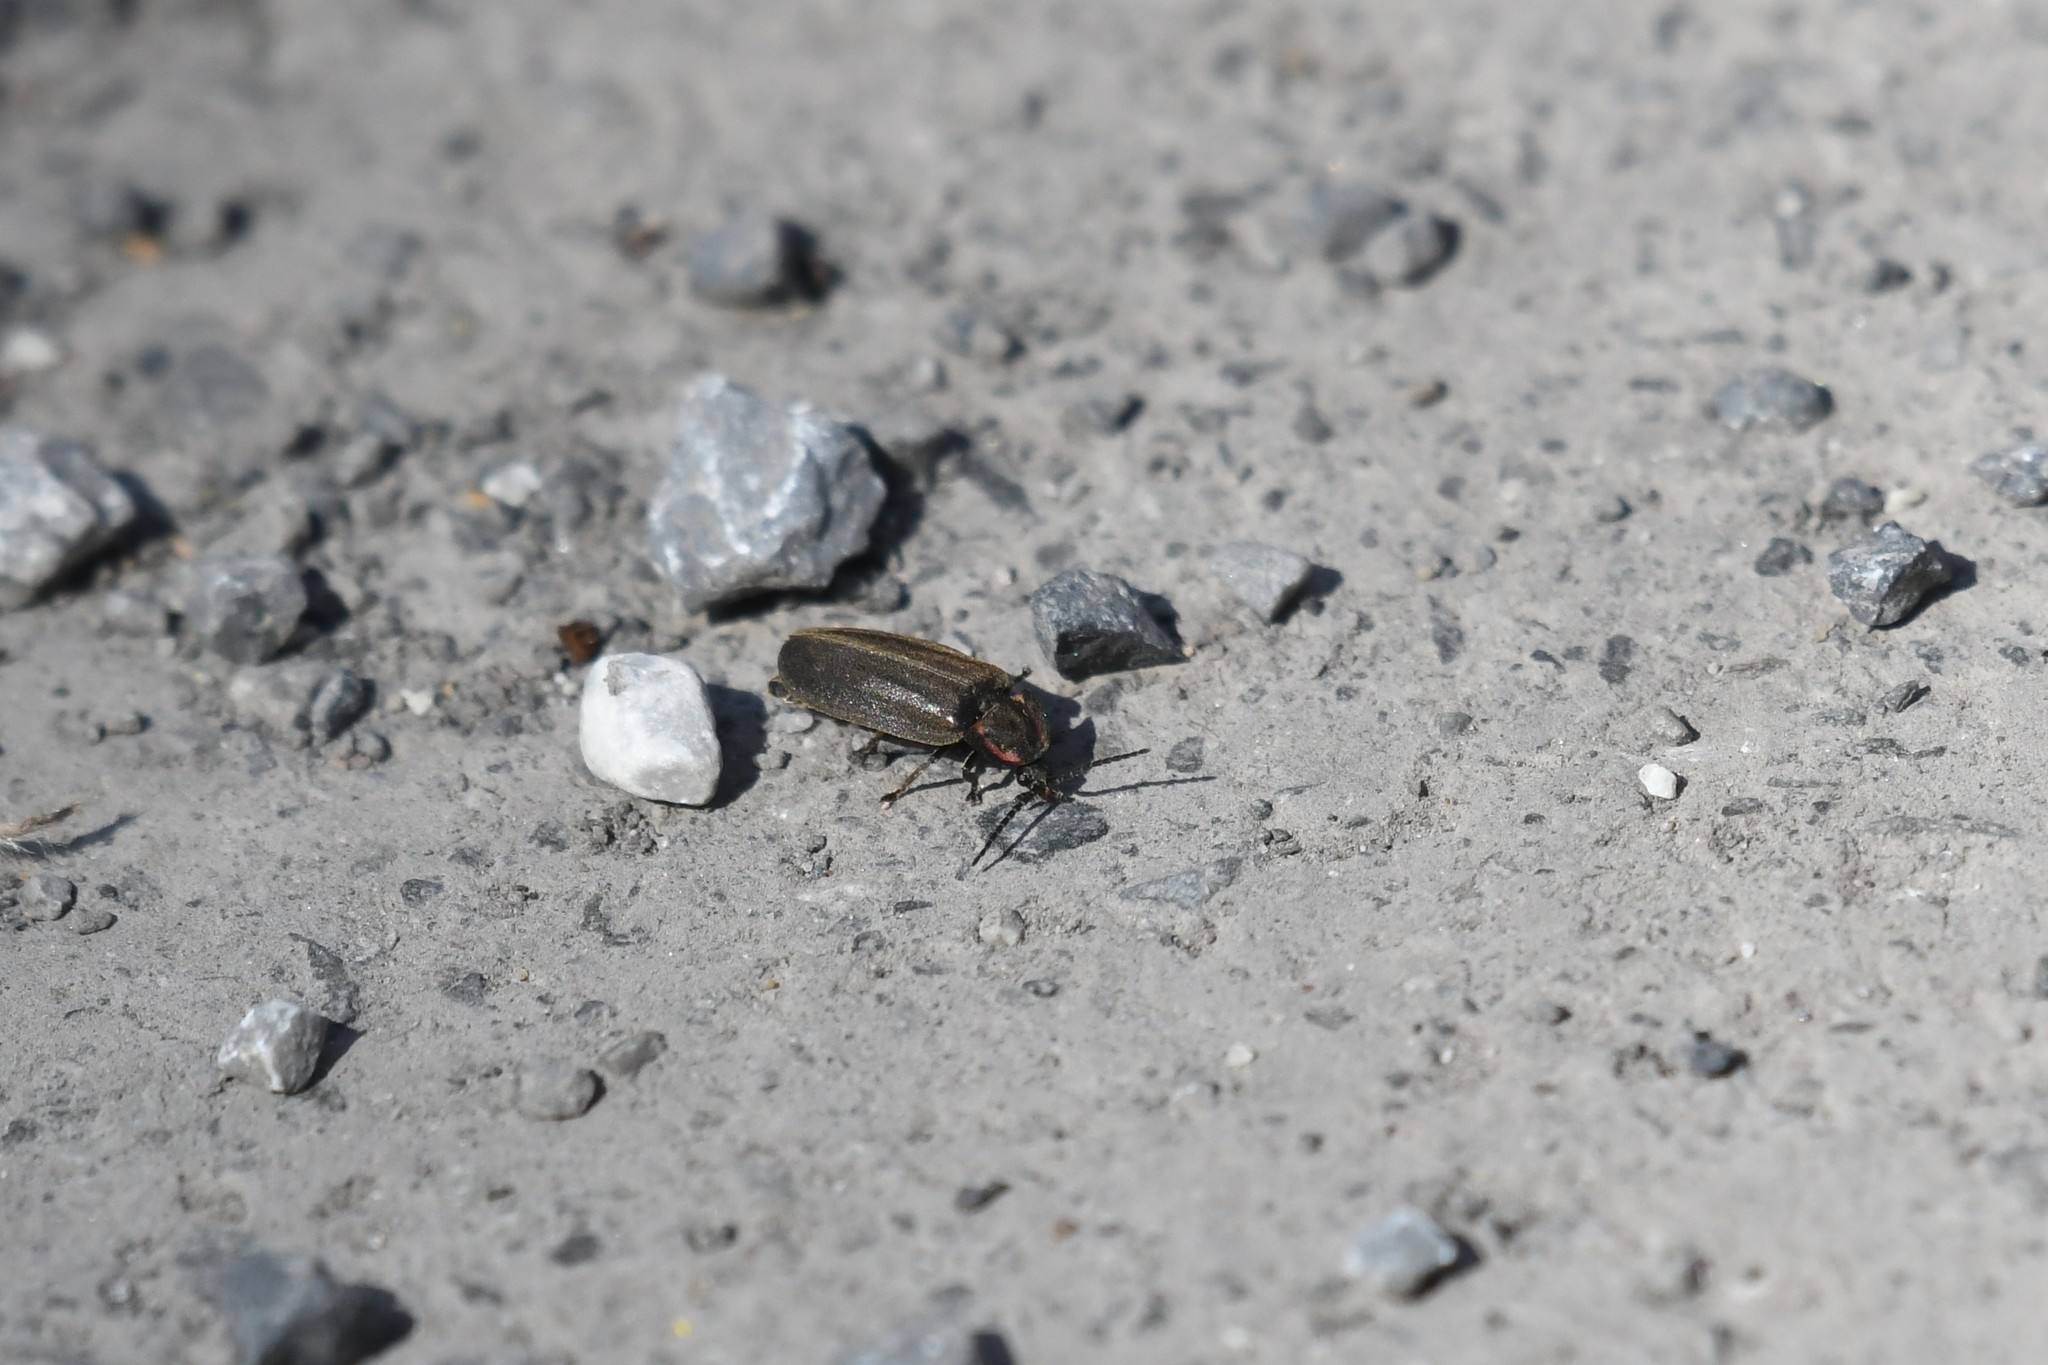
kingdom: Animalia
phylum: Arthropoda
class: Insecta
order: Coleoptera
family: Lampyridae
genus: Photinus
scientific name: Photinus corrusca
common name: Winter firefly
